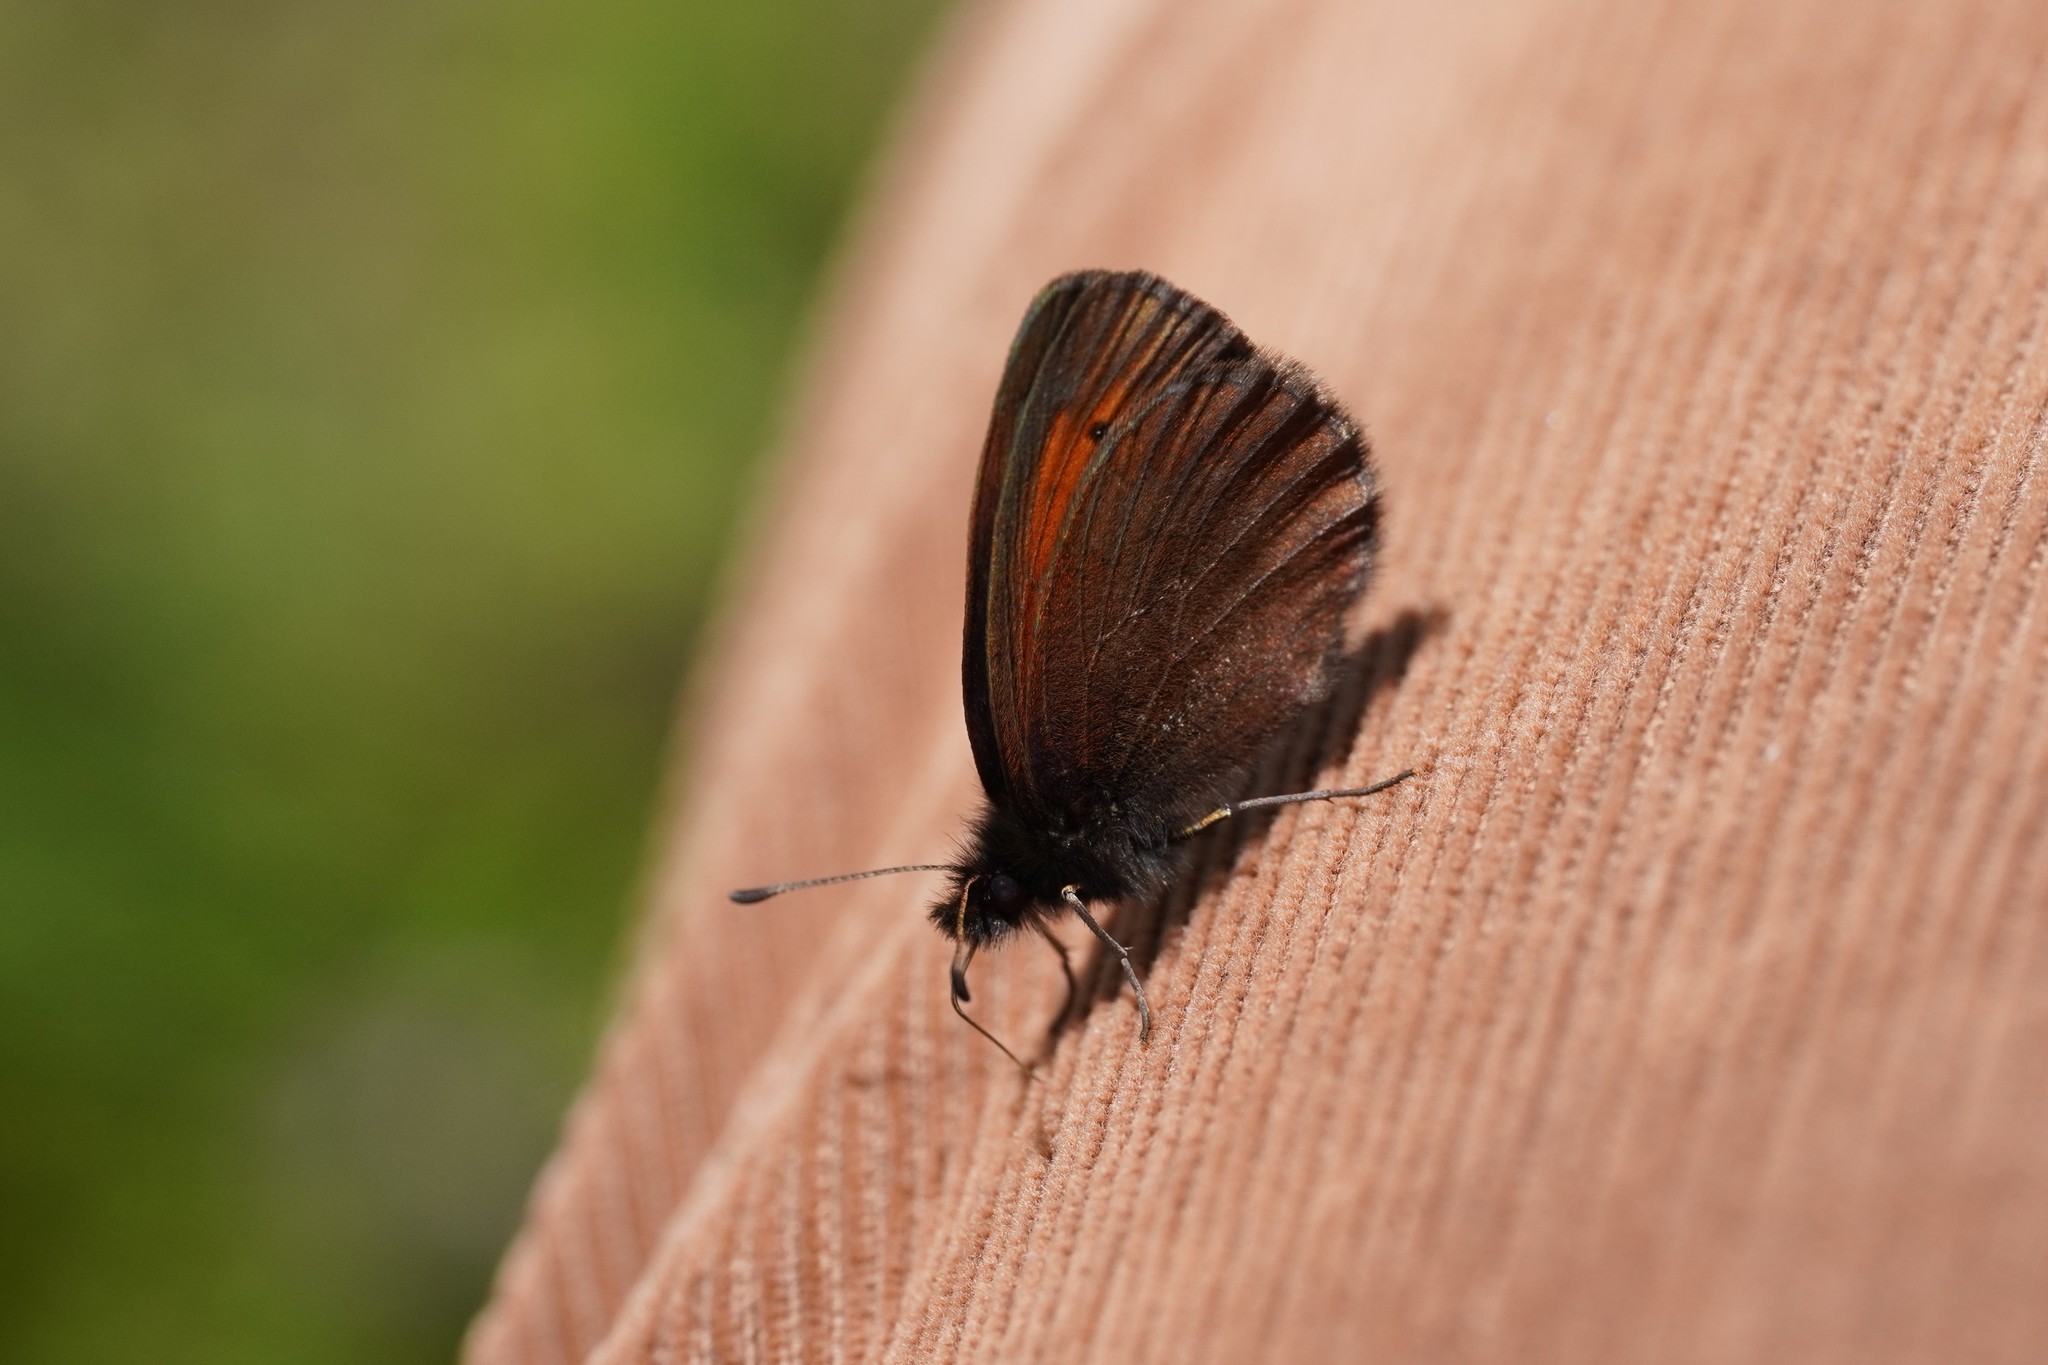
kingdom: Animalia
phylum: Arthropoda
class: Insecta
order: Lepidoptera
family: Nymphalidae
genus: Erebia
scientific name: Erebia mnestra
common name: Mnestra’s ringlet
